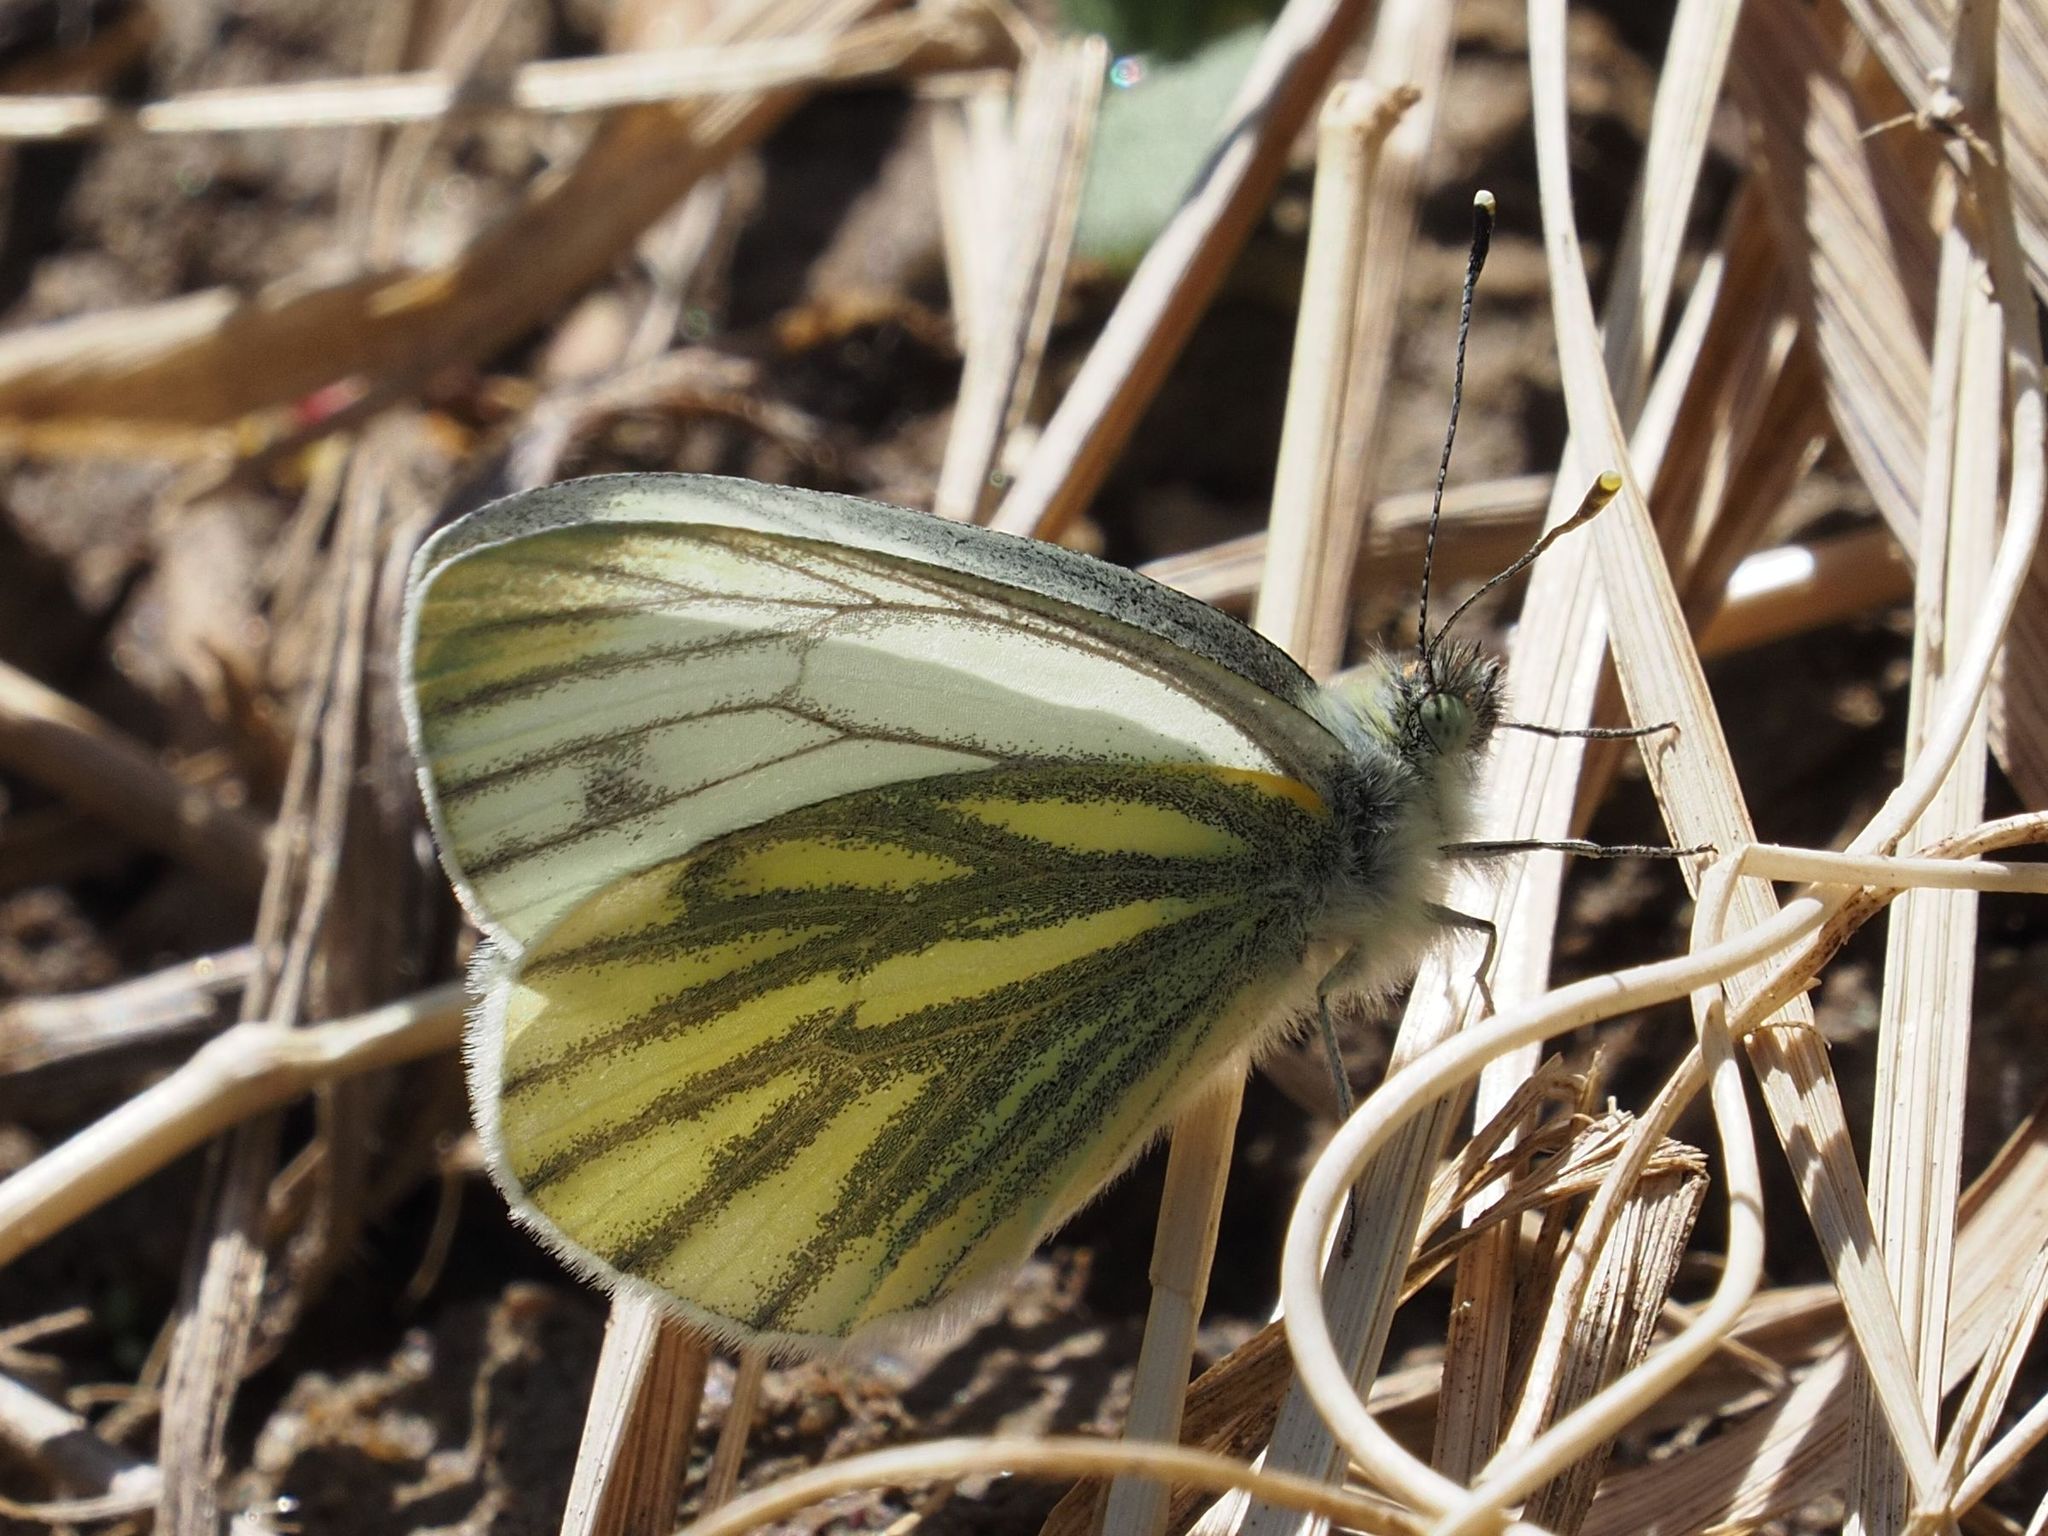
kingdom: Animalia
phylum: Arthropoda
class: Insecta
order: Lepidoptera
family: Pieridae
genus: Pieris
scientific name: Pieris napi
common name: Green-veined white
